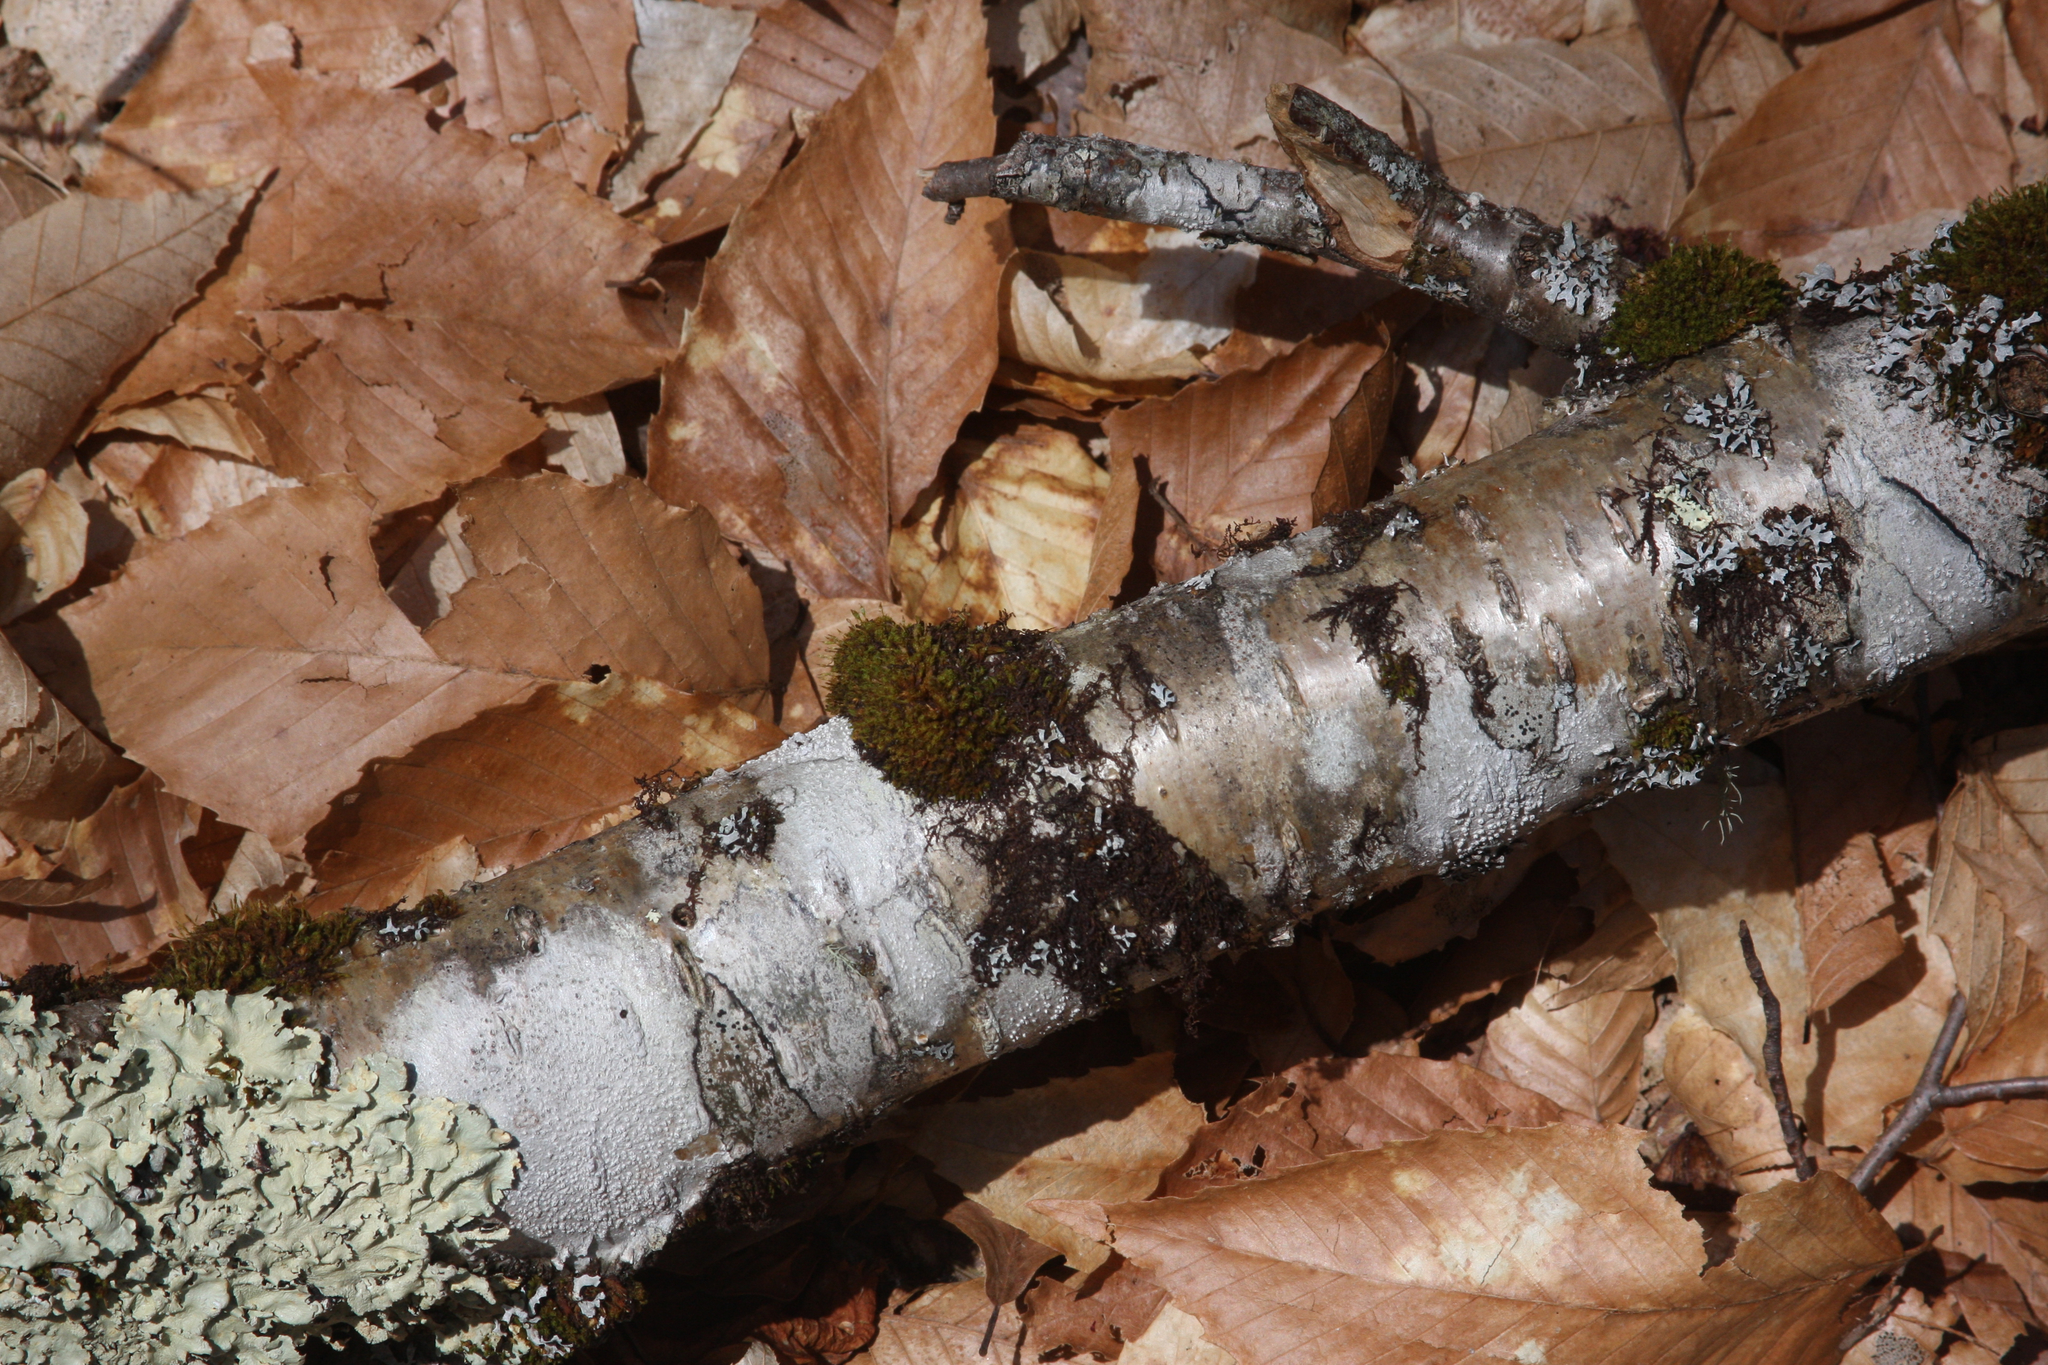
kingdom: Plantae
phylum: Bryophyta
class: Bryopsida
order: Orthotrichales
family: Orthotrichaceae
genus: Ulota
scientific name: Ulota crispa
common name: Crisped pincushion moss
